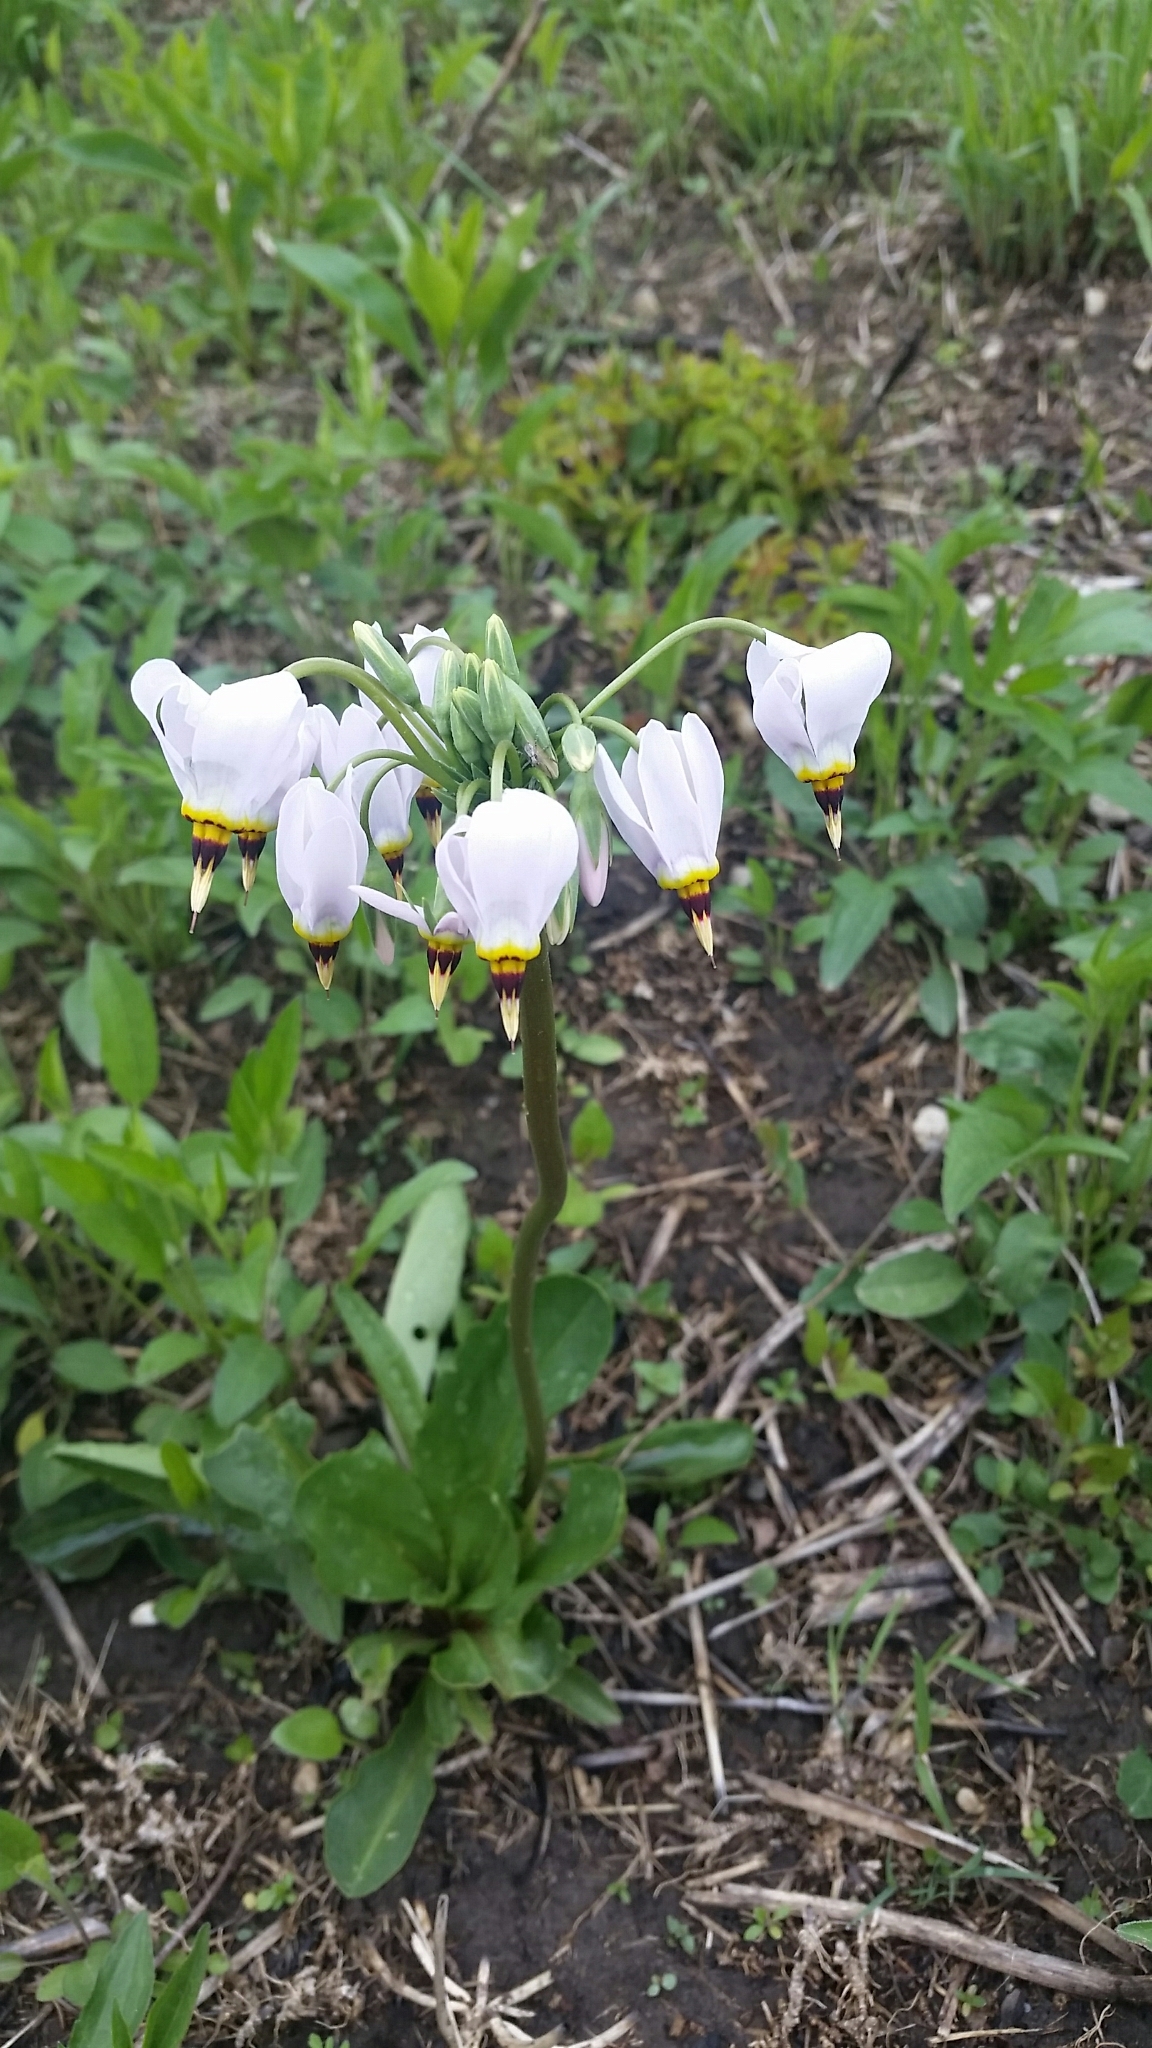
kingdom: Plantae
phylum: Tracheophyta
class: Magnoliopsida
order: Ericales
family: Primulaceae
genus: Dodecatheon
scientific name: Dodecatheon meadia
